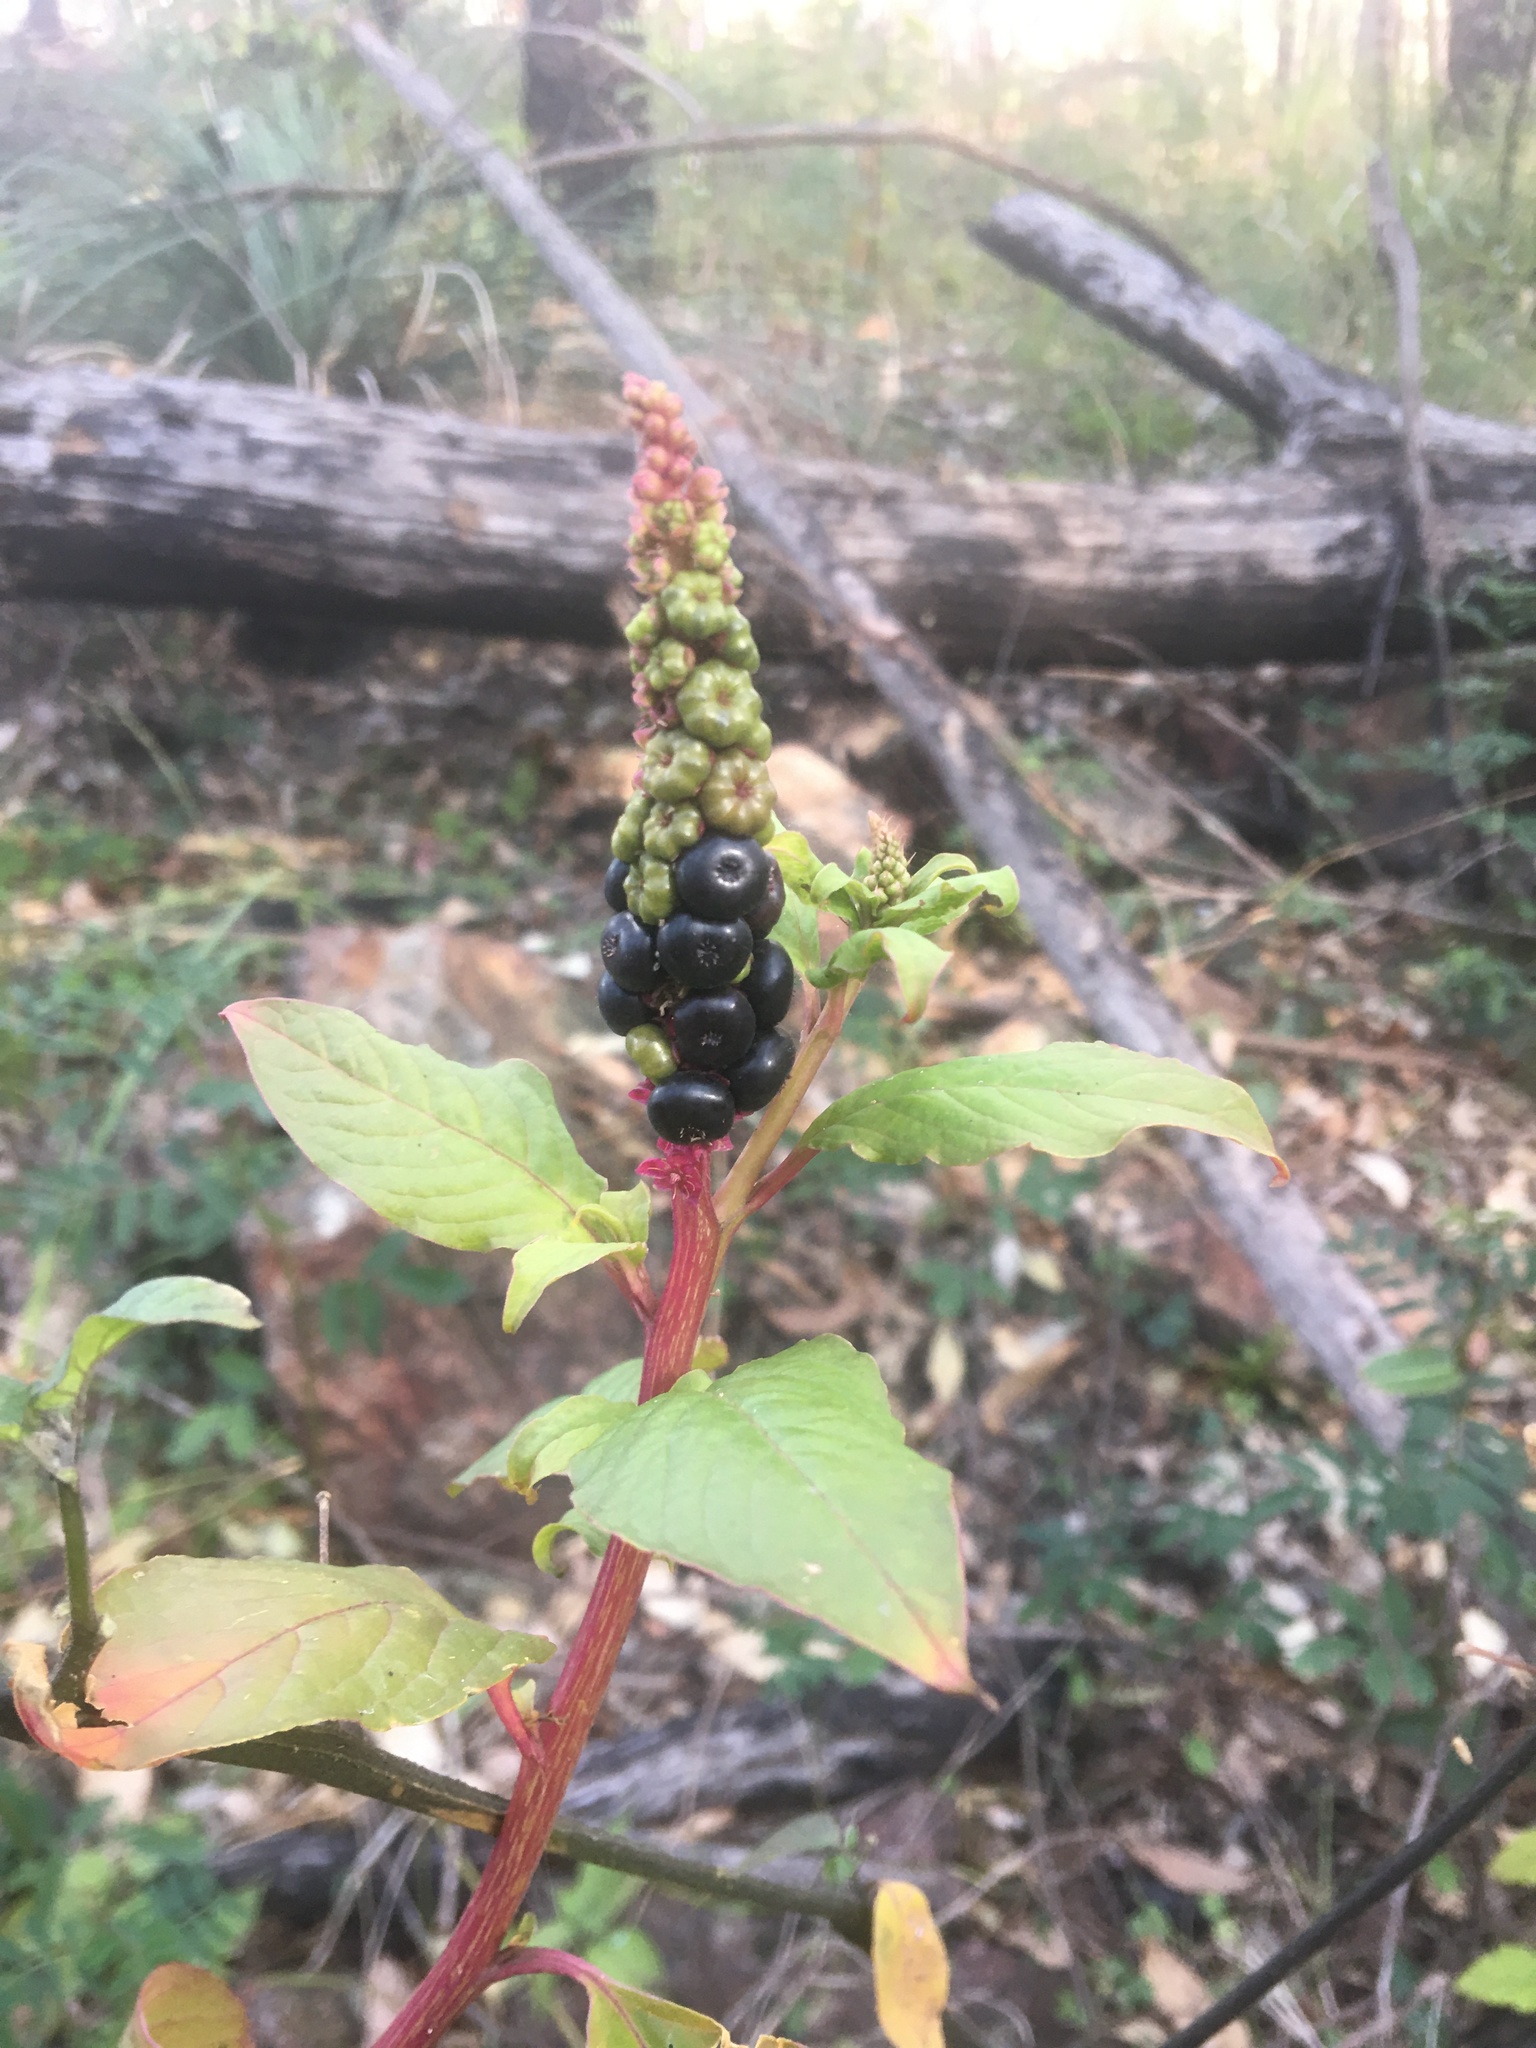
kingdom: Plantae
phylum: Tracheophyta
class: Magnoliopsida
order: Caryophyllales
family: Phytolaccaceae
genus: Phytolacca
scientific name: Phytolacca icosandra
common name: Button pokeweed
